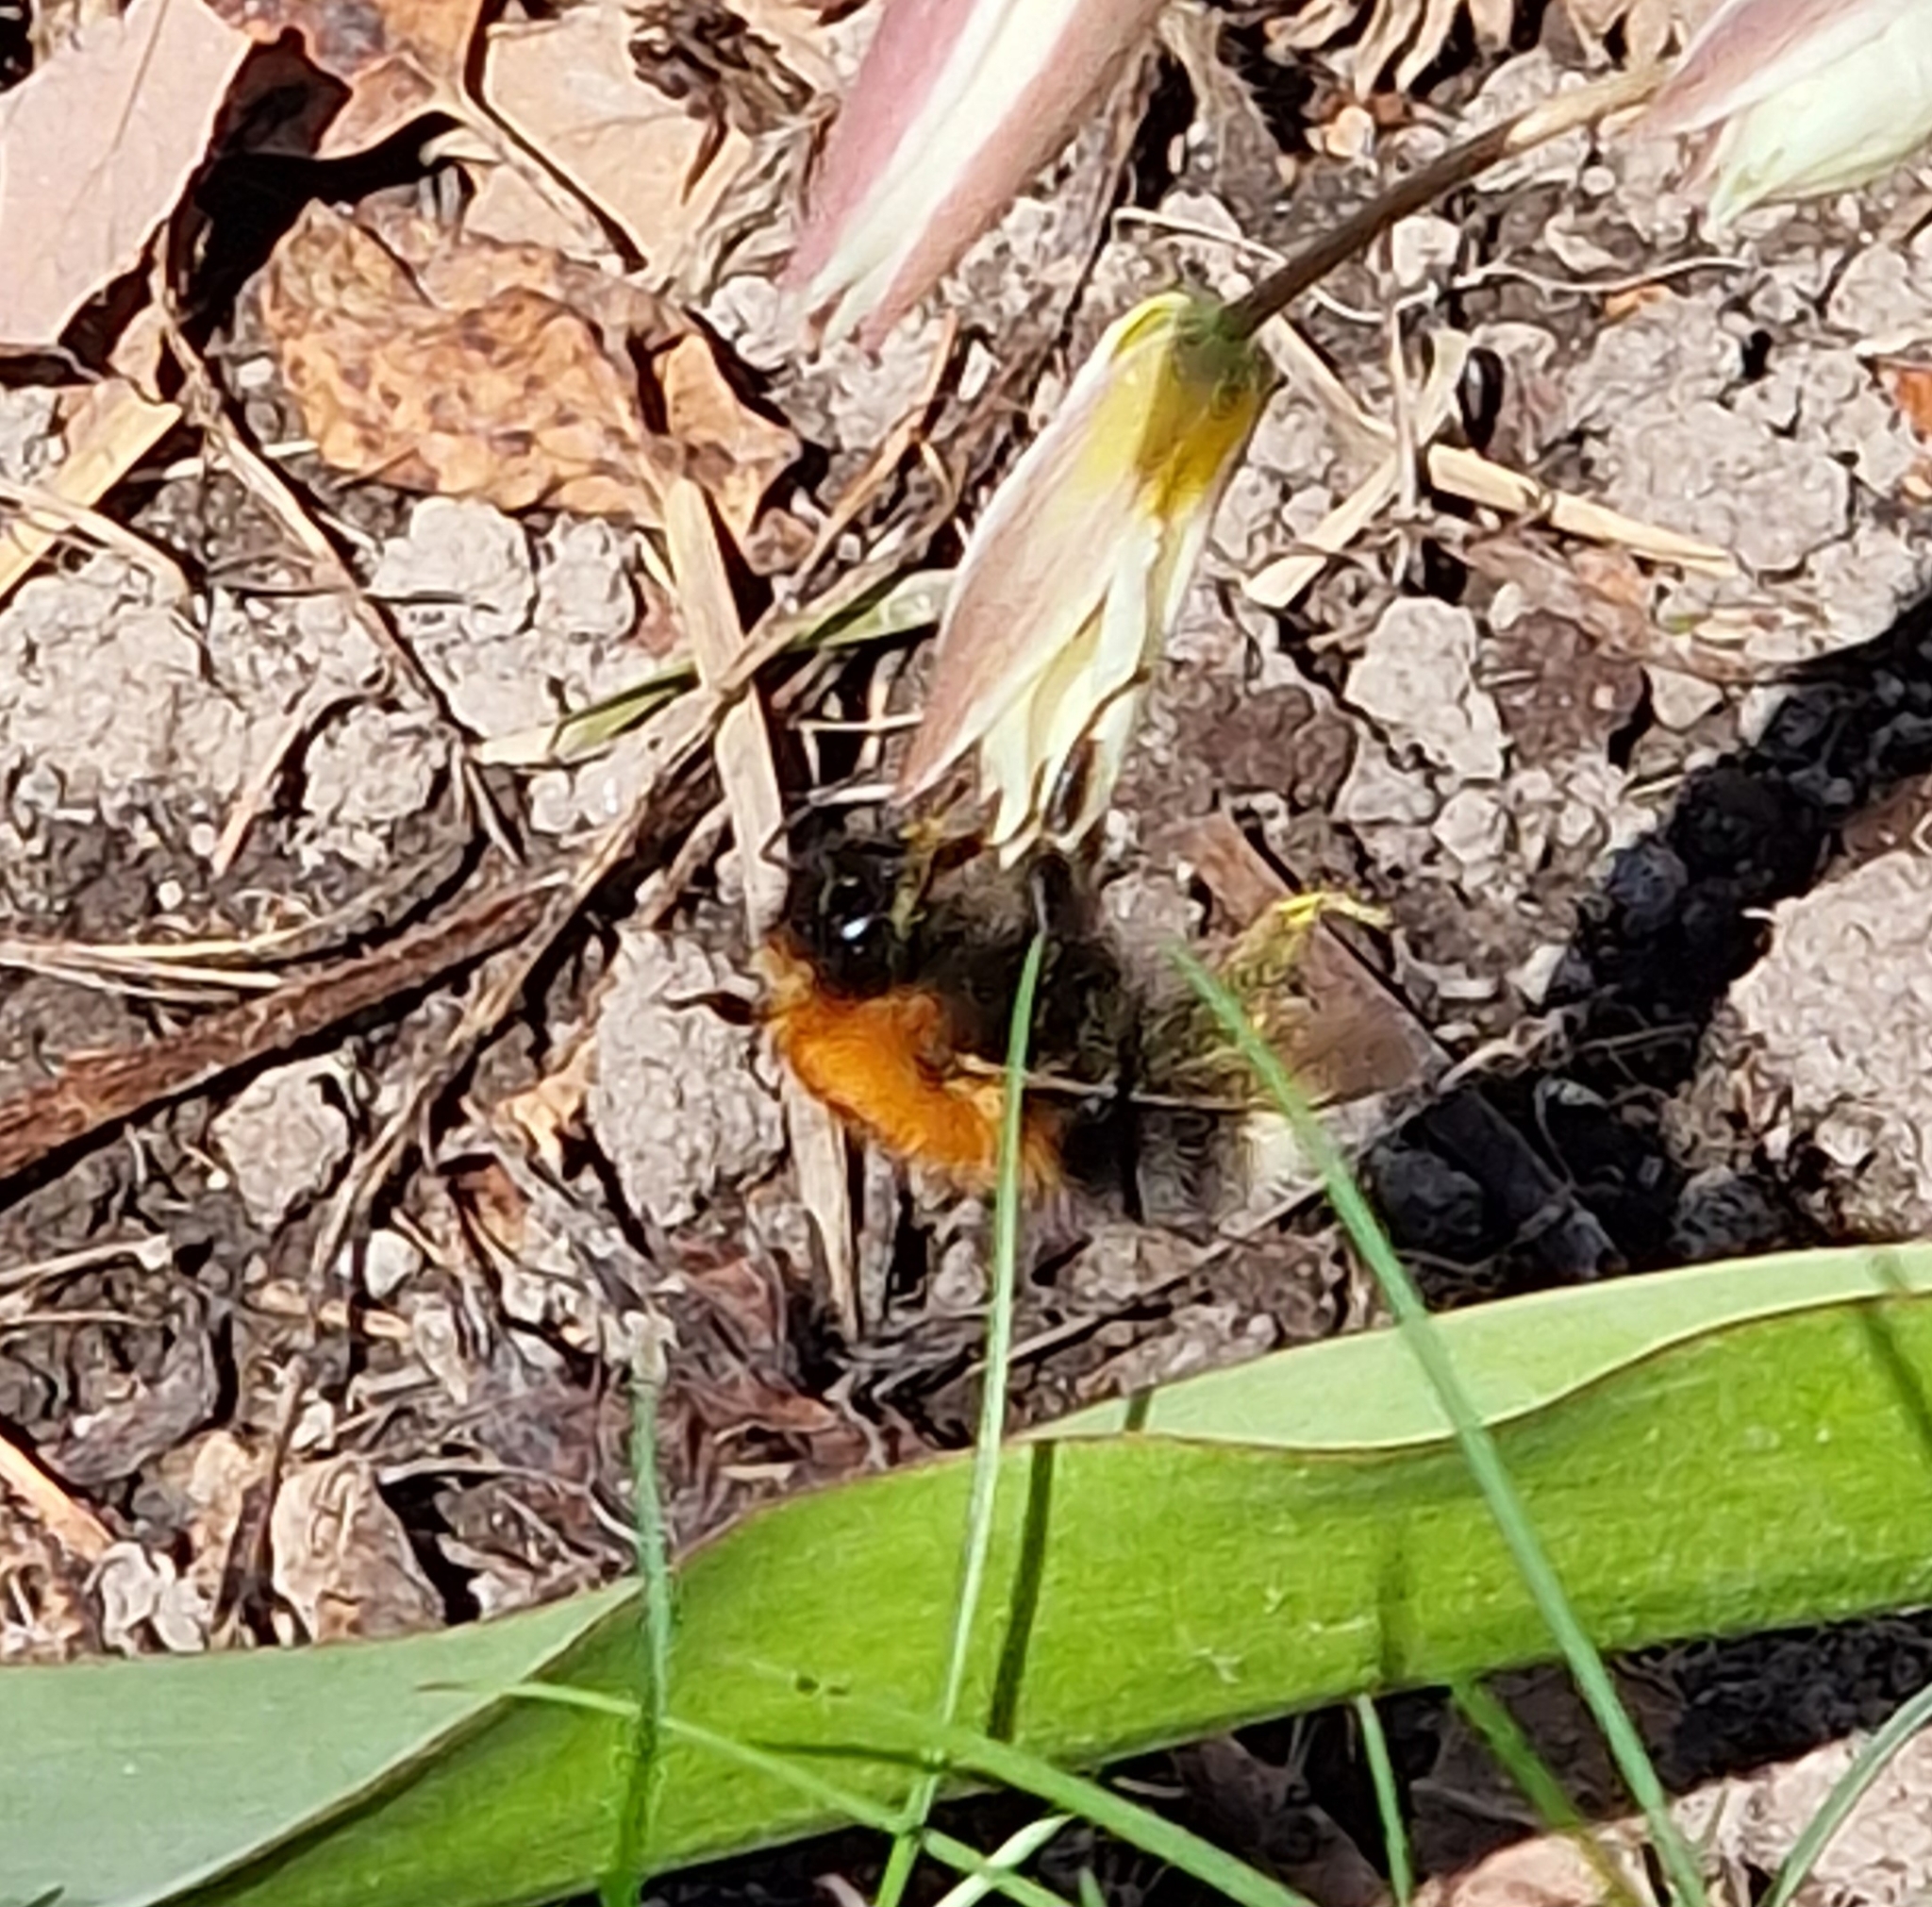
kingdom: Animalia
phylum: Arthropoda
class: Insecta
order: Hymenoptera
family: Apidae
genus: Bombus
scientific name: Bombus hypnorum
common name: New garden bumblebee
